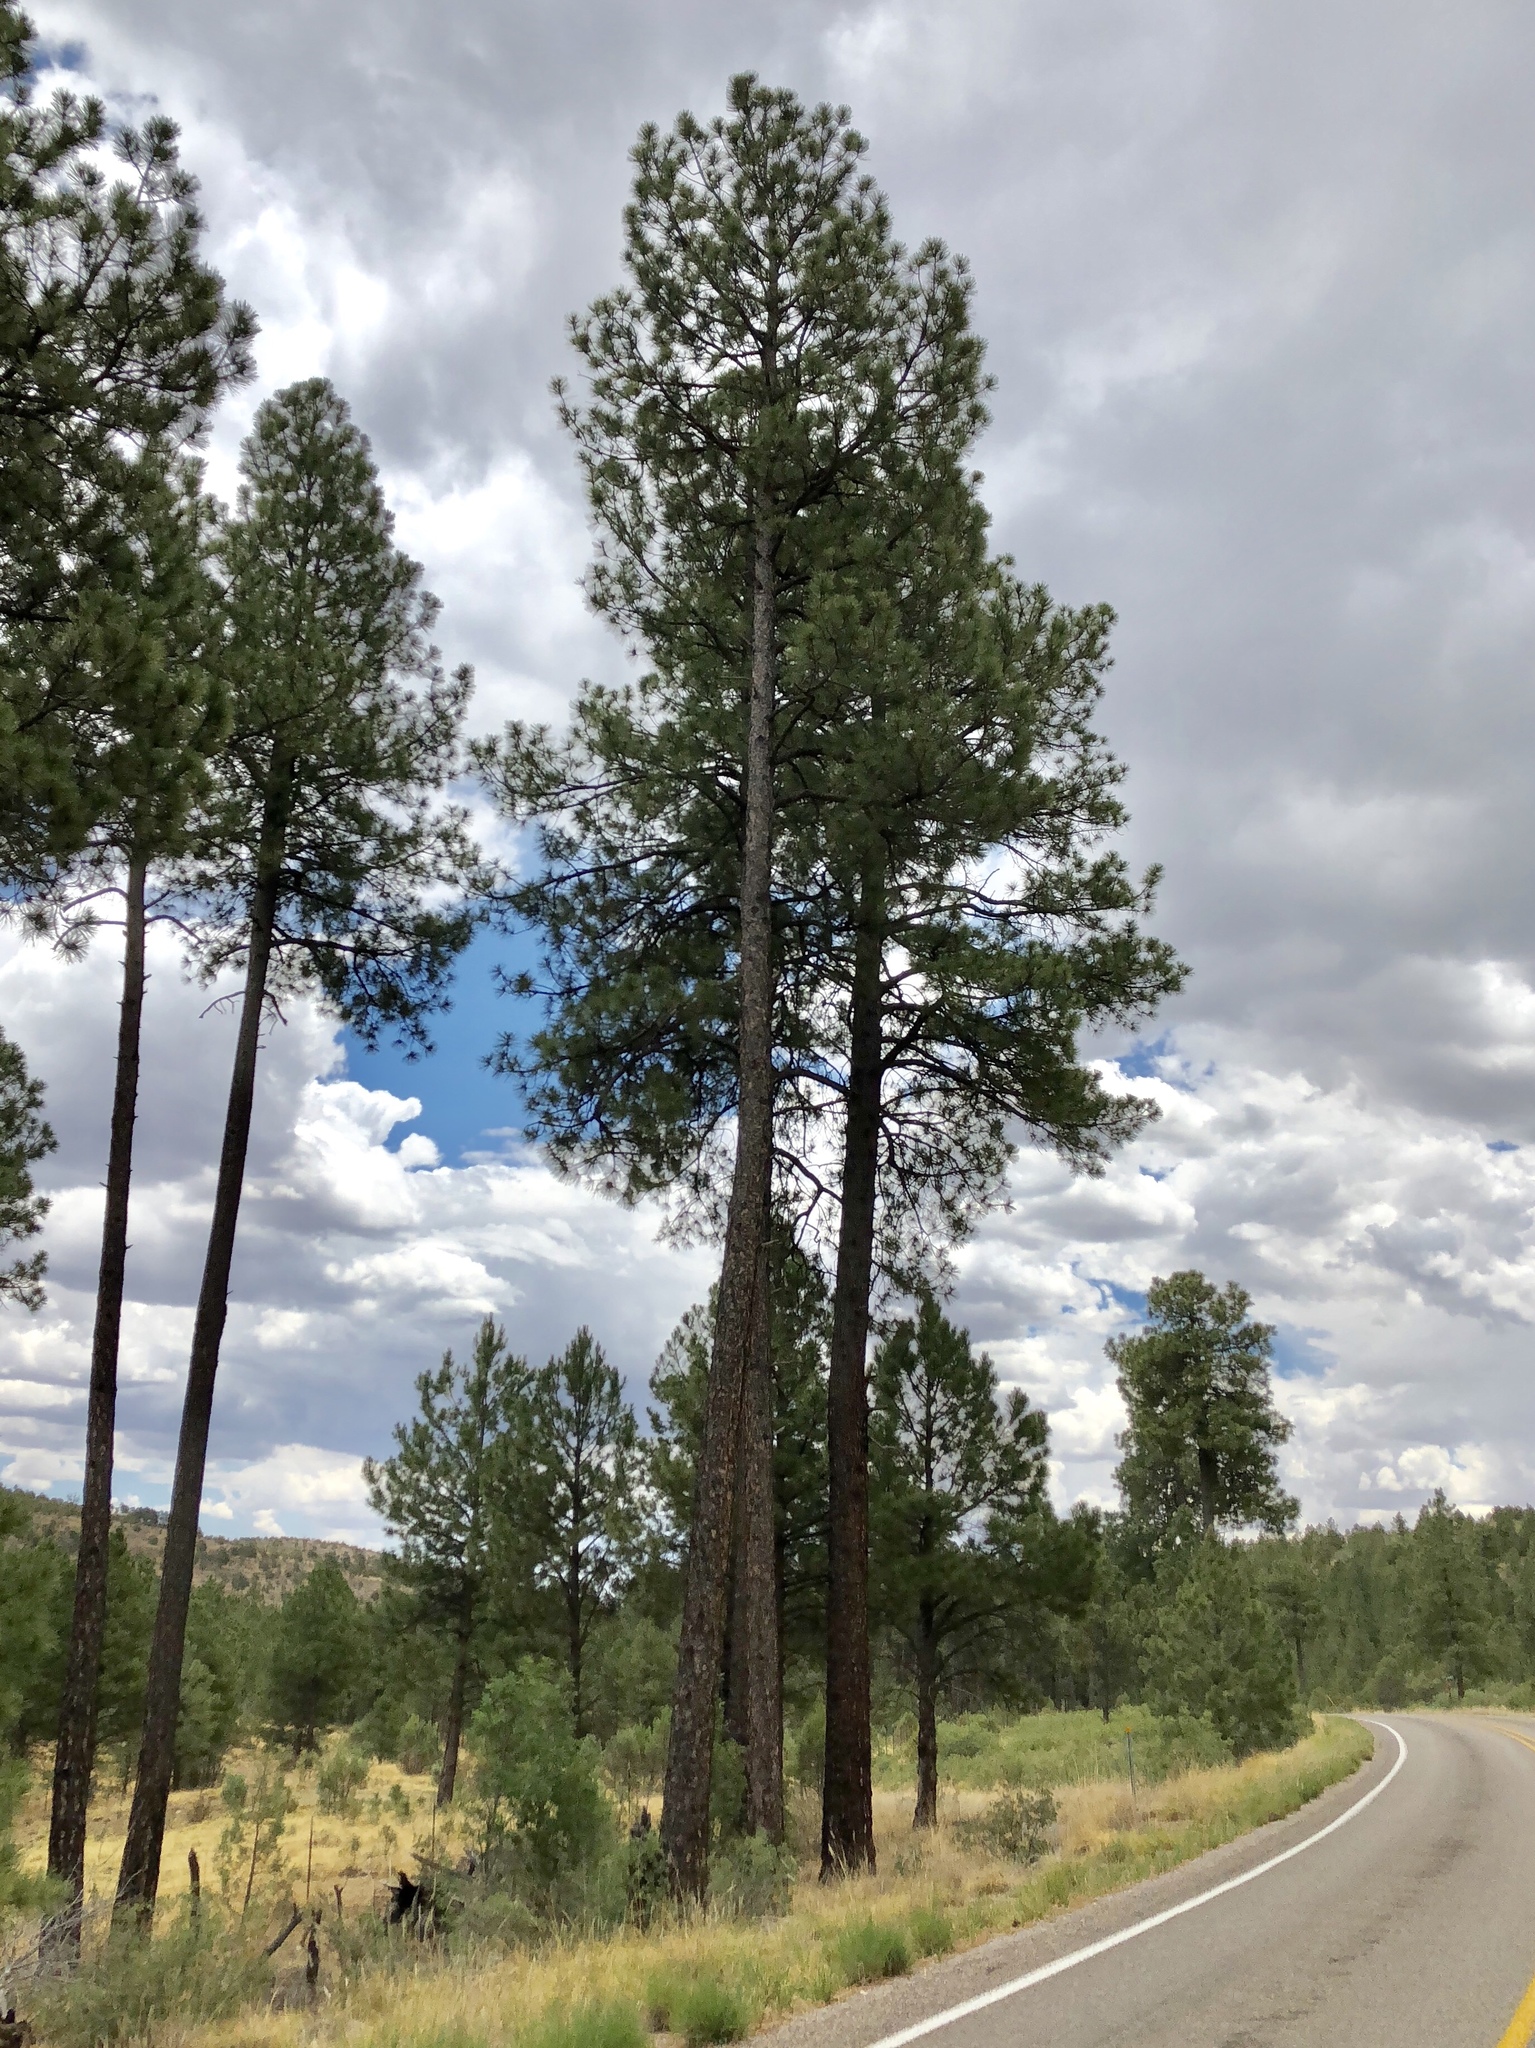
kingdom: Plantae
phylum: Tracheophyta
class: Pinopsida
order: Pinales
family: Pinaceae
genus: Pinus
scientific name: Pinus ponderosa
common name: Western yellow-pine
